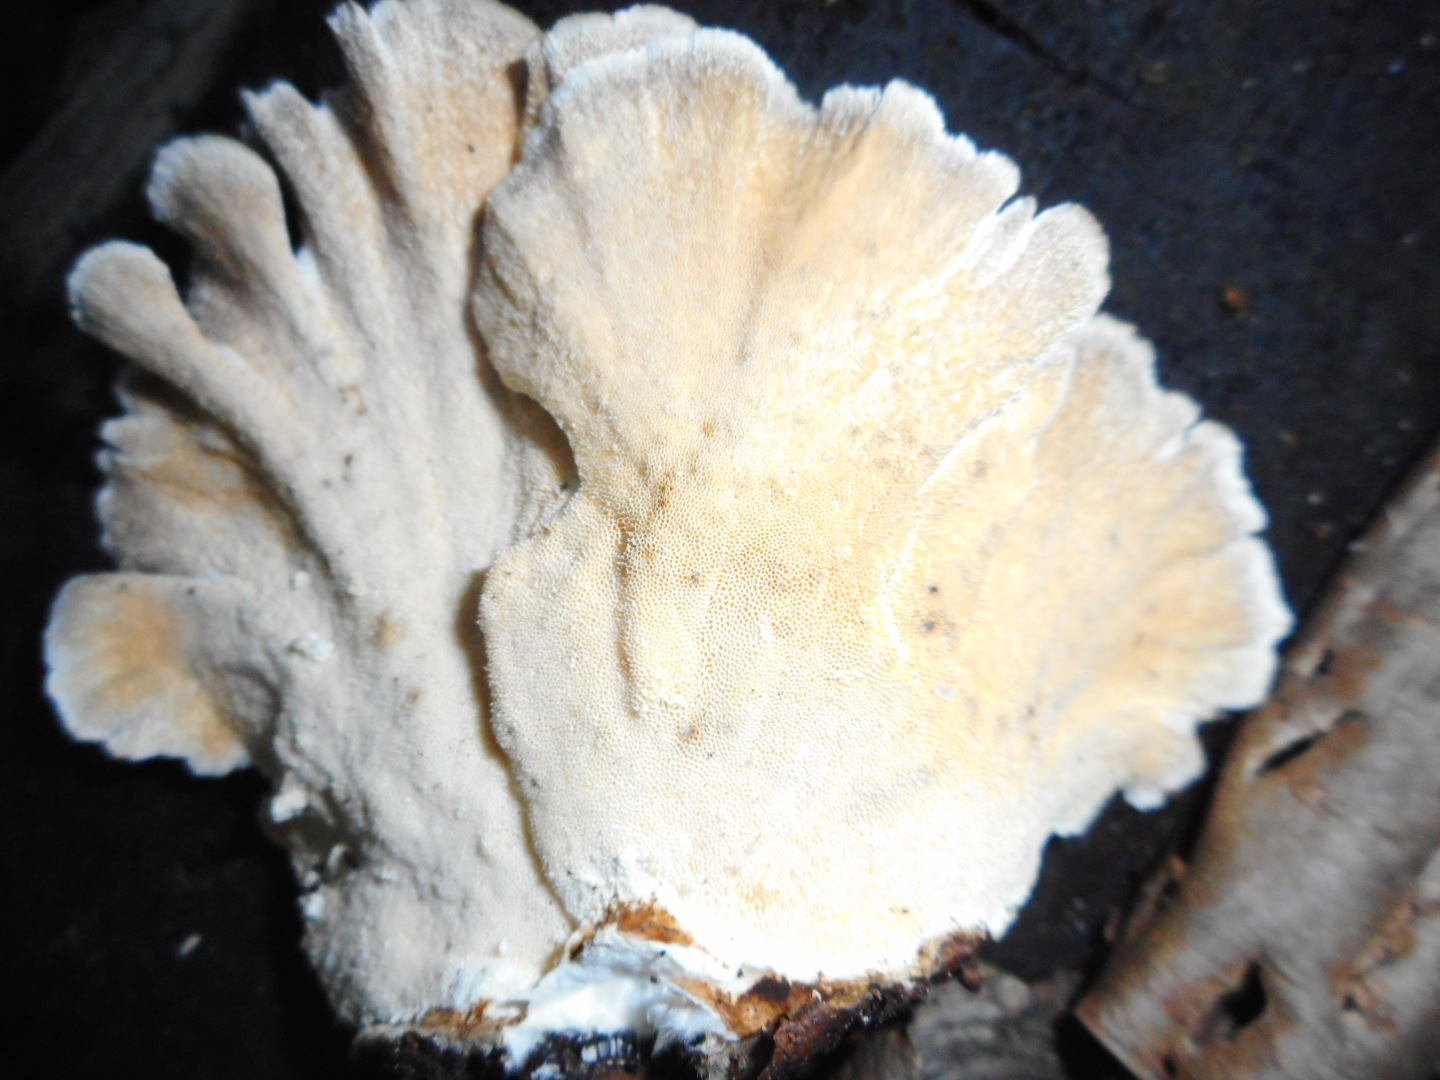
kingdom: Fungi
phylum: Basidiomycota
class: Agaricomycetes
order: Polyporales
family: Polyporaceae
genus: Trametes
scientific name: Trametes ochracea
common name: Ochre bracket
